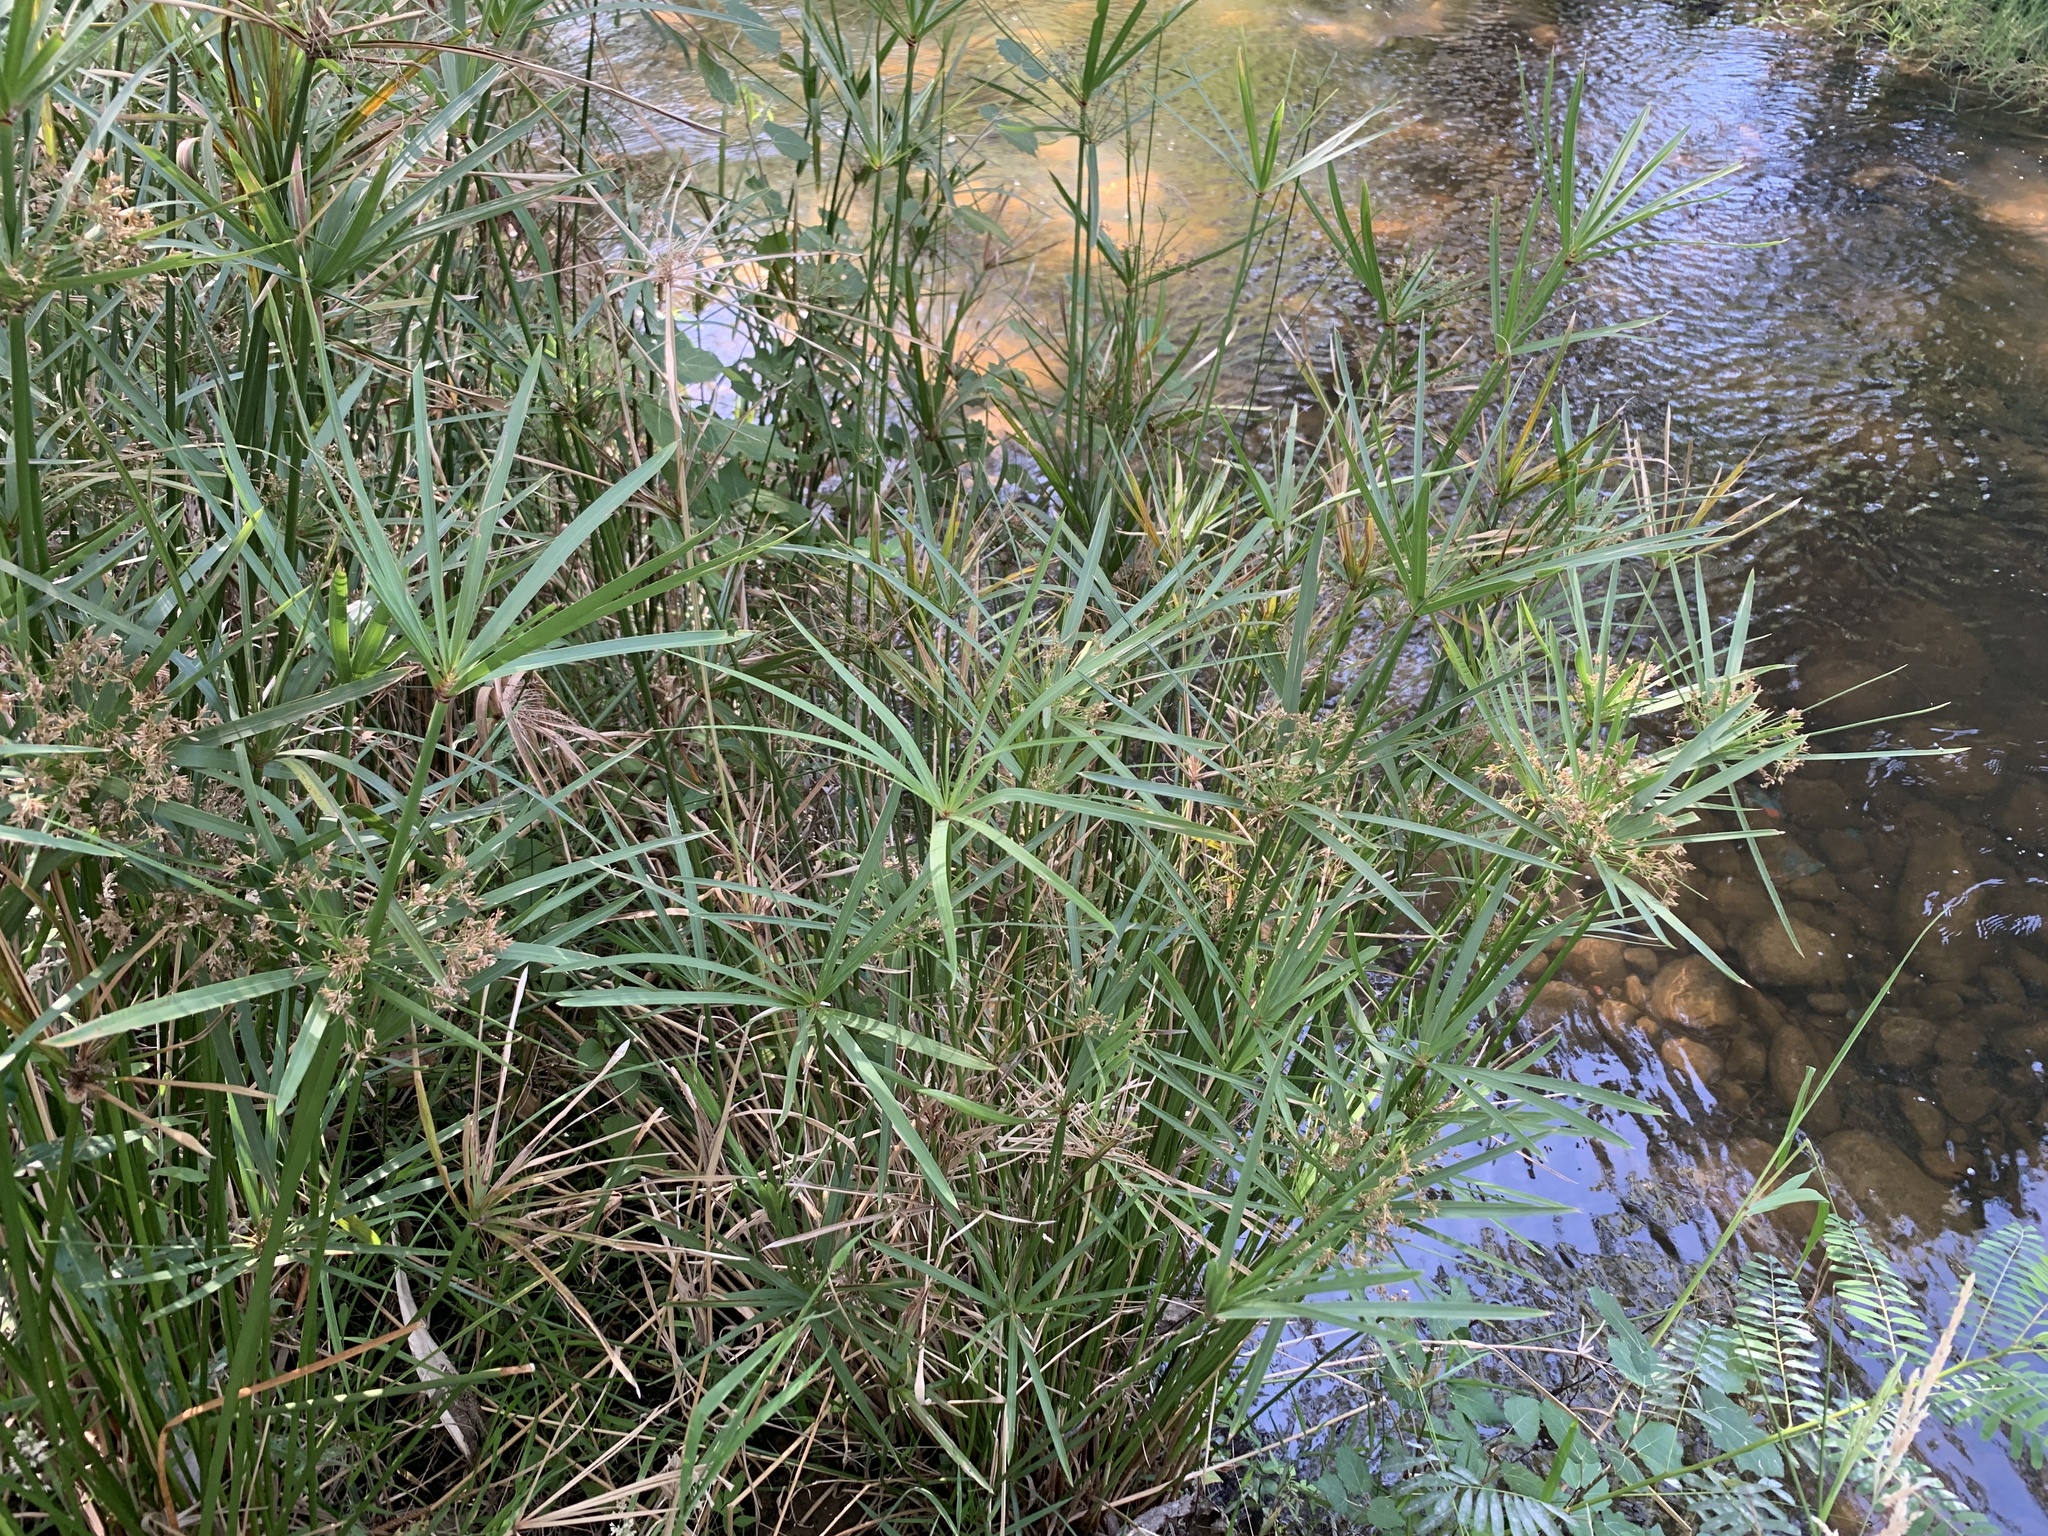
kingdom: Plantae
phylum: Tracheophyta
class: Liliopsida
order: Poales
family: Cyperaceae
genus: Cyperus
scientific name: Cyperus textilis
